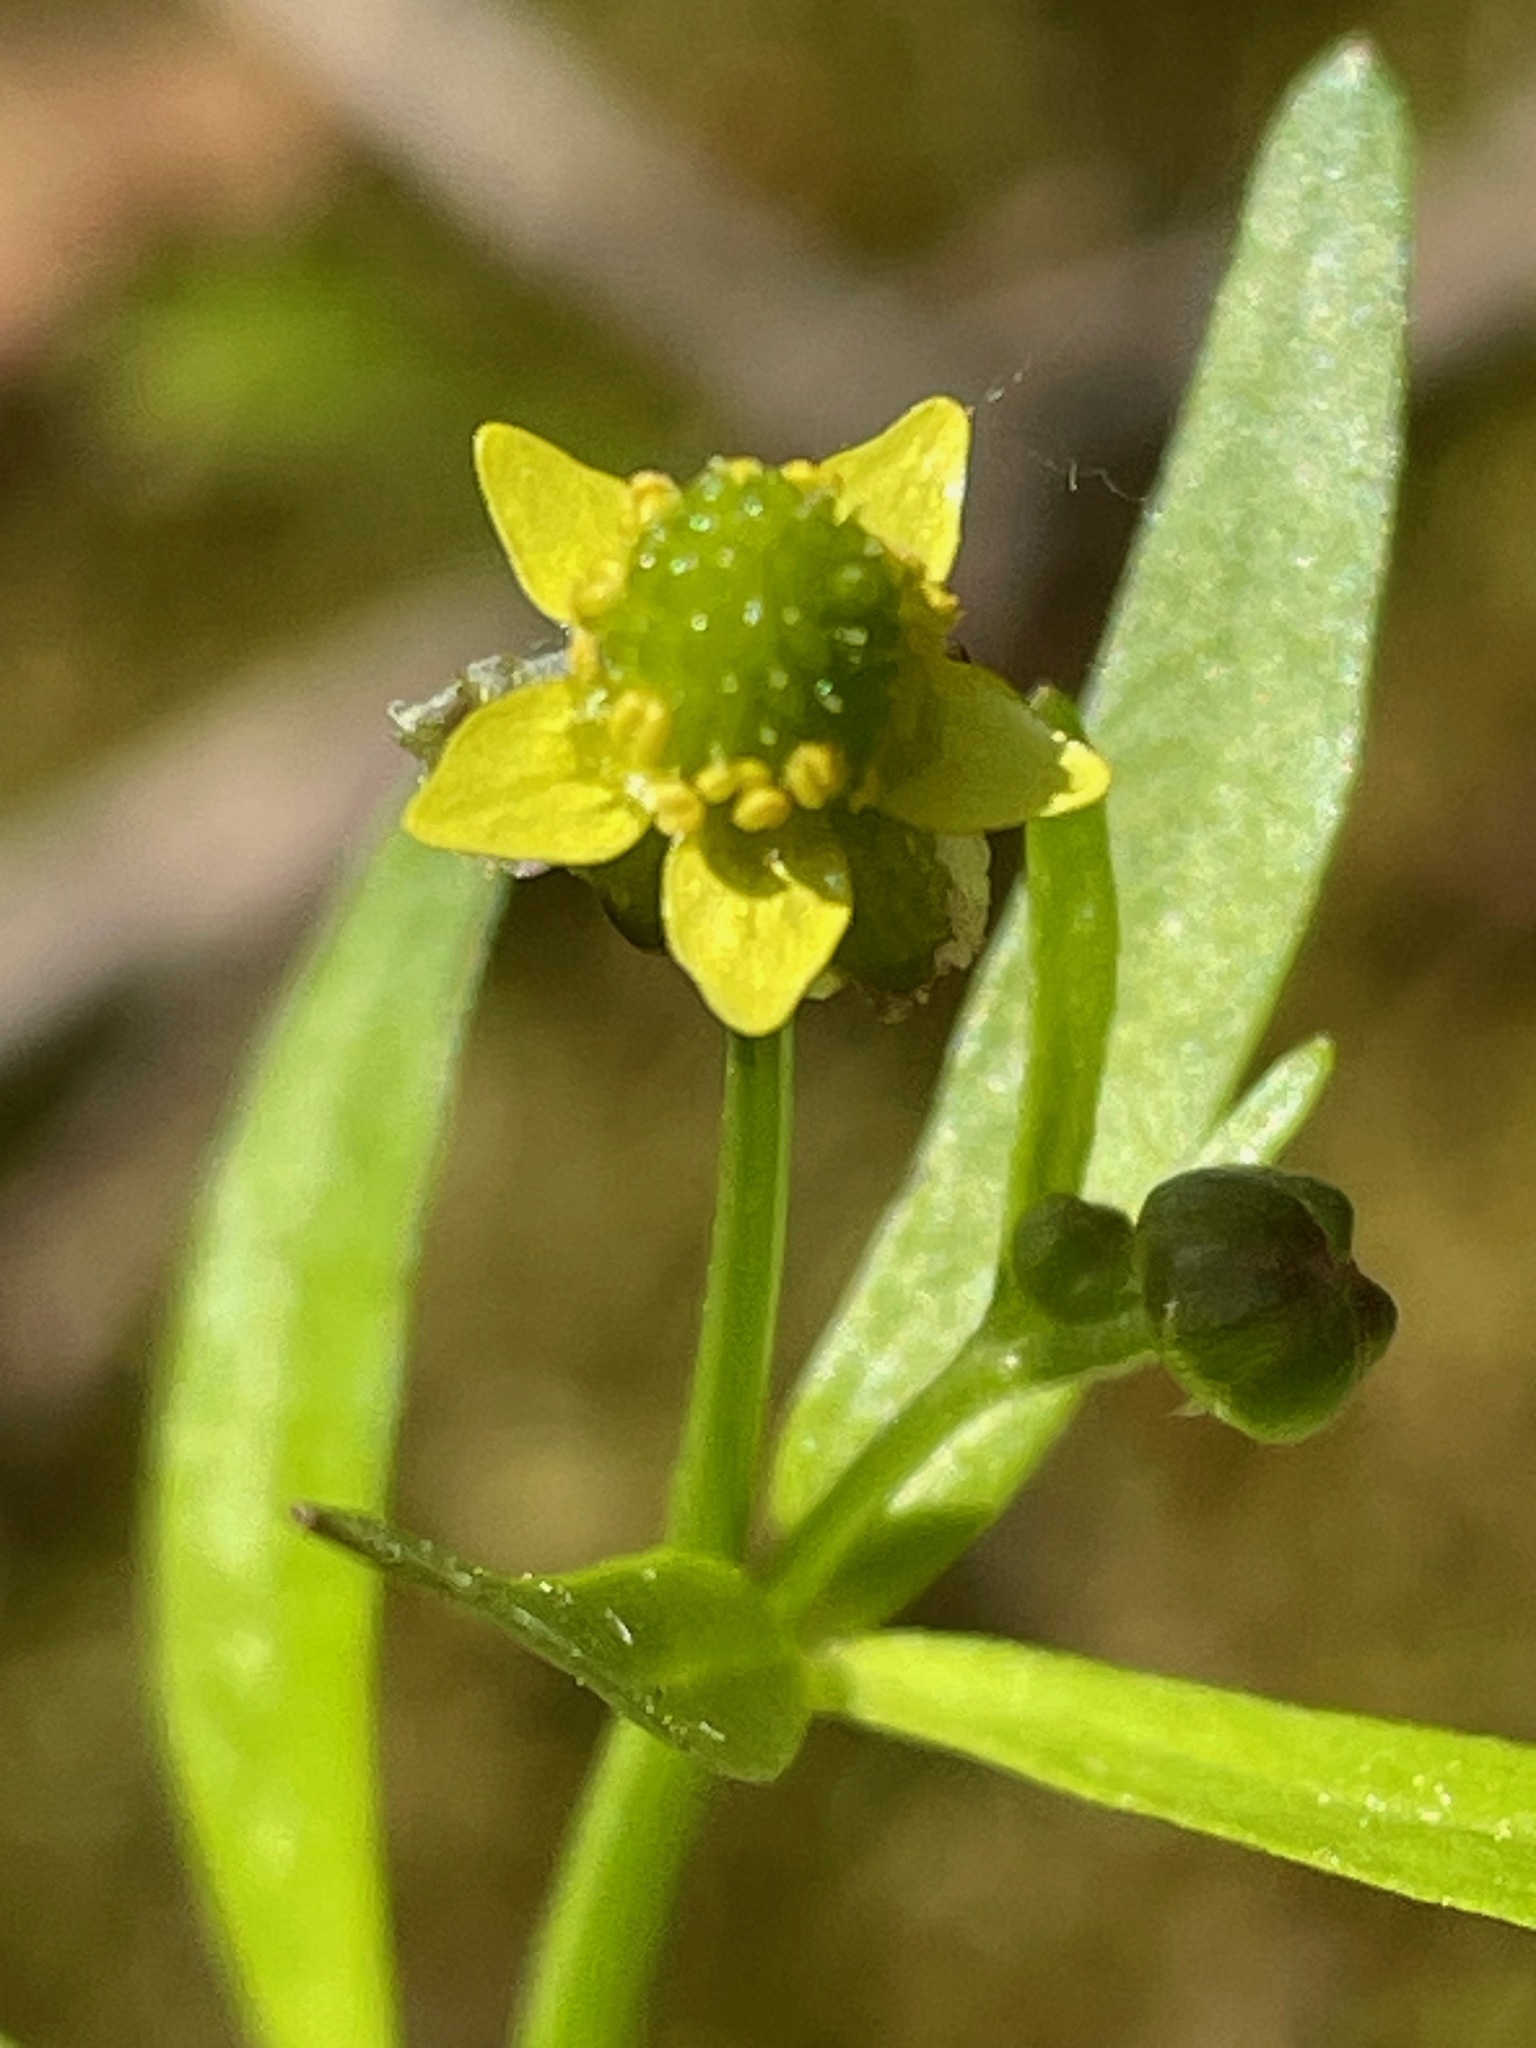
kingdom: Plantae
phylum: Tracheophyta
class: Magnoliopsida
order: Ranunculales
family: Ranunculaceae
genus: Ranunculus
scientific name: Ranunculus abortivus
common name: Early wood buttercup
